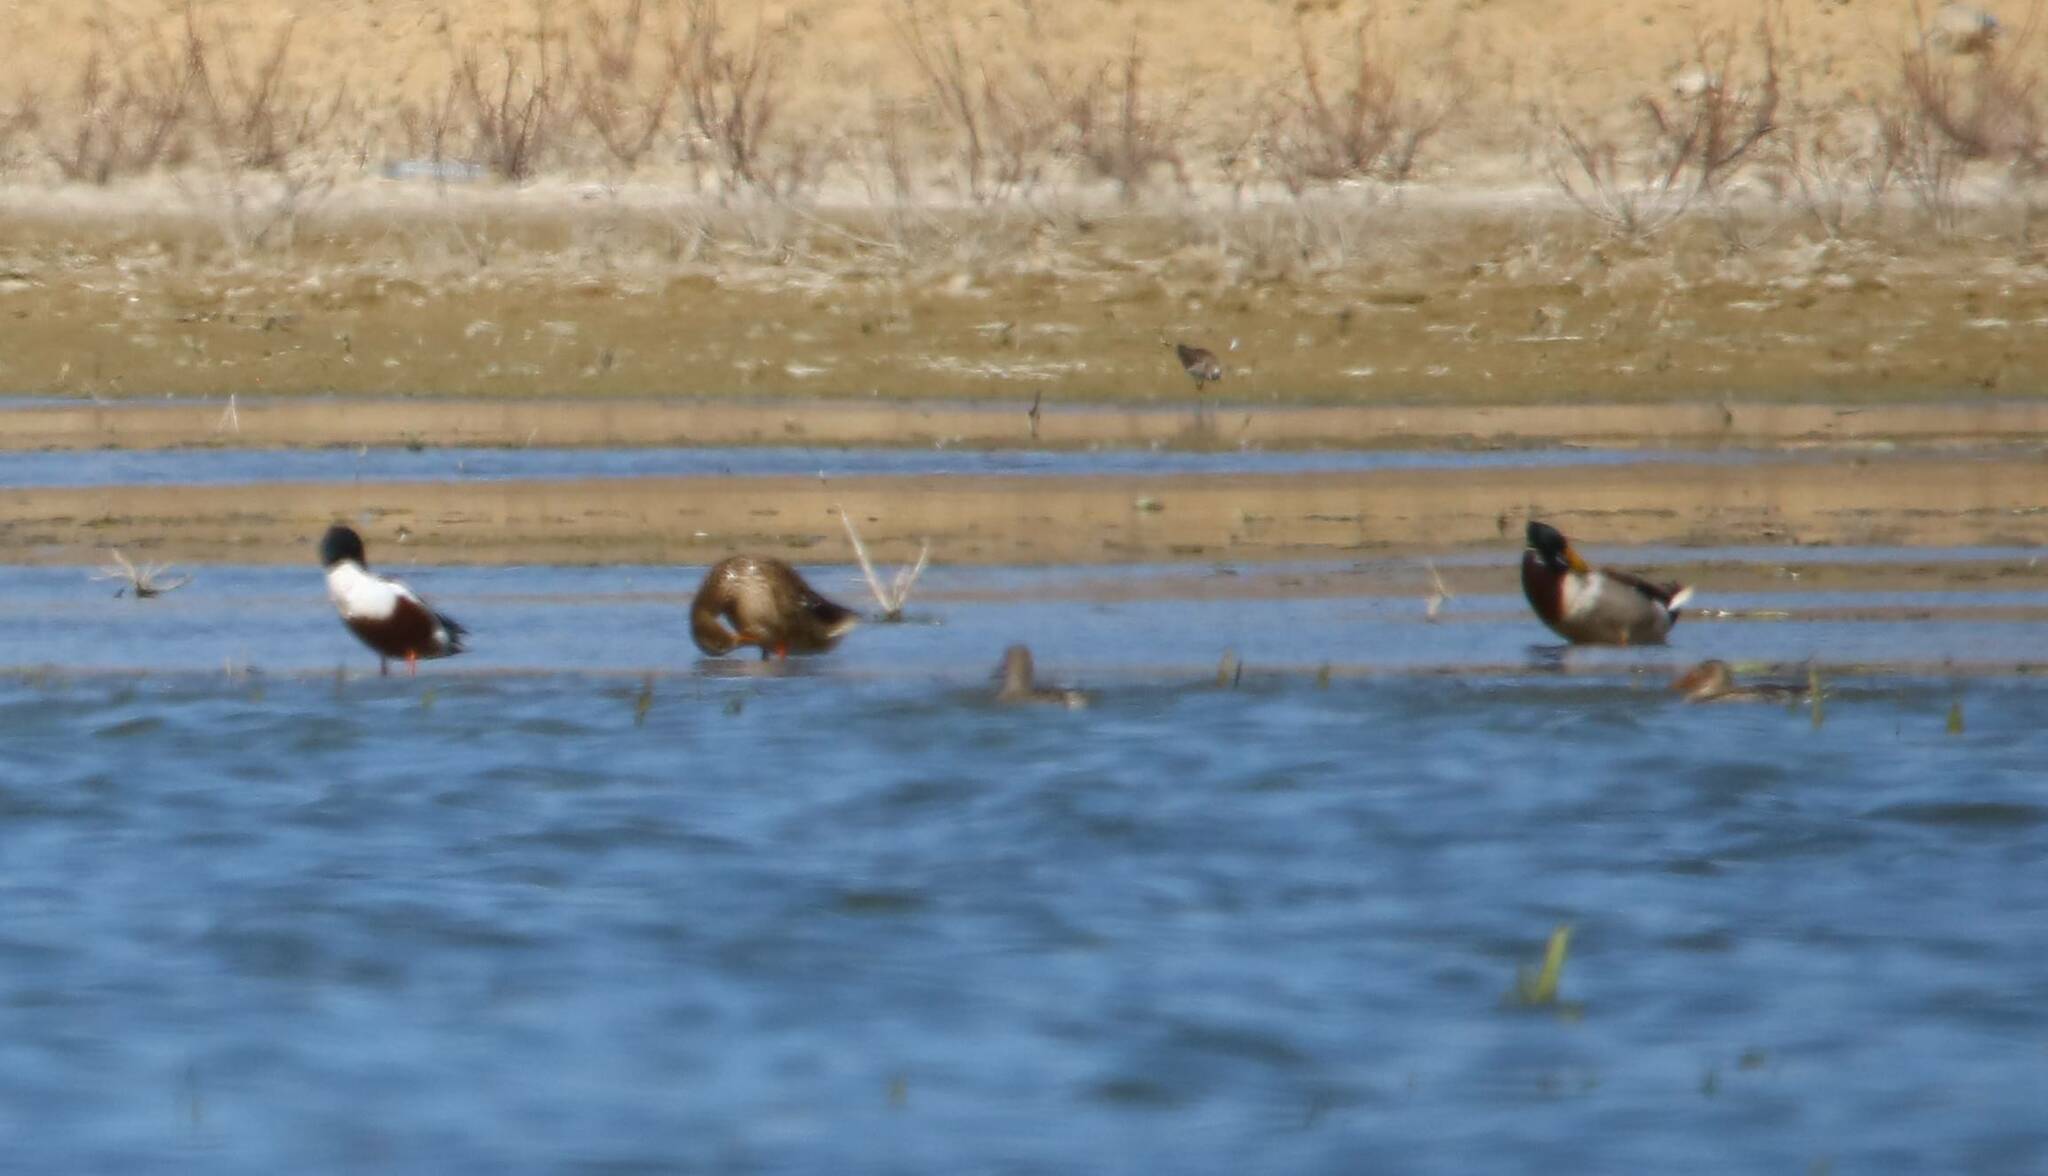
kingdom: Animalia
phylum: Chordata
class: Aves
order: Anseriformes
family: Anatidae
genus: Spatula
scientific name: Spatula clypeata
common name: Northern shoveler
